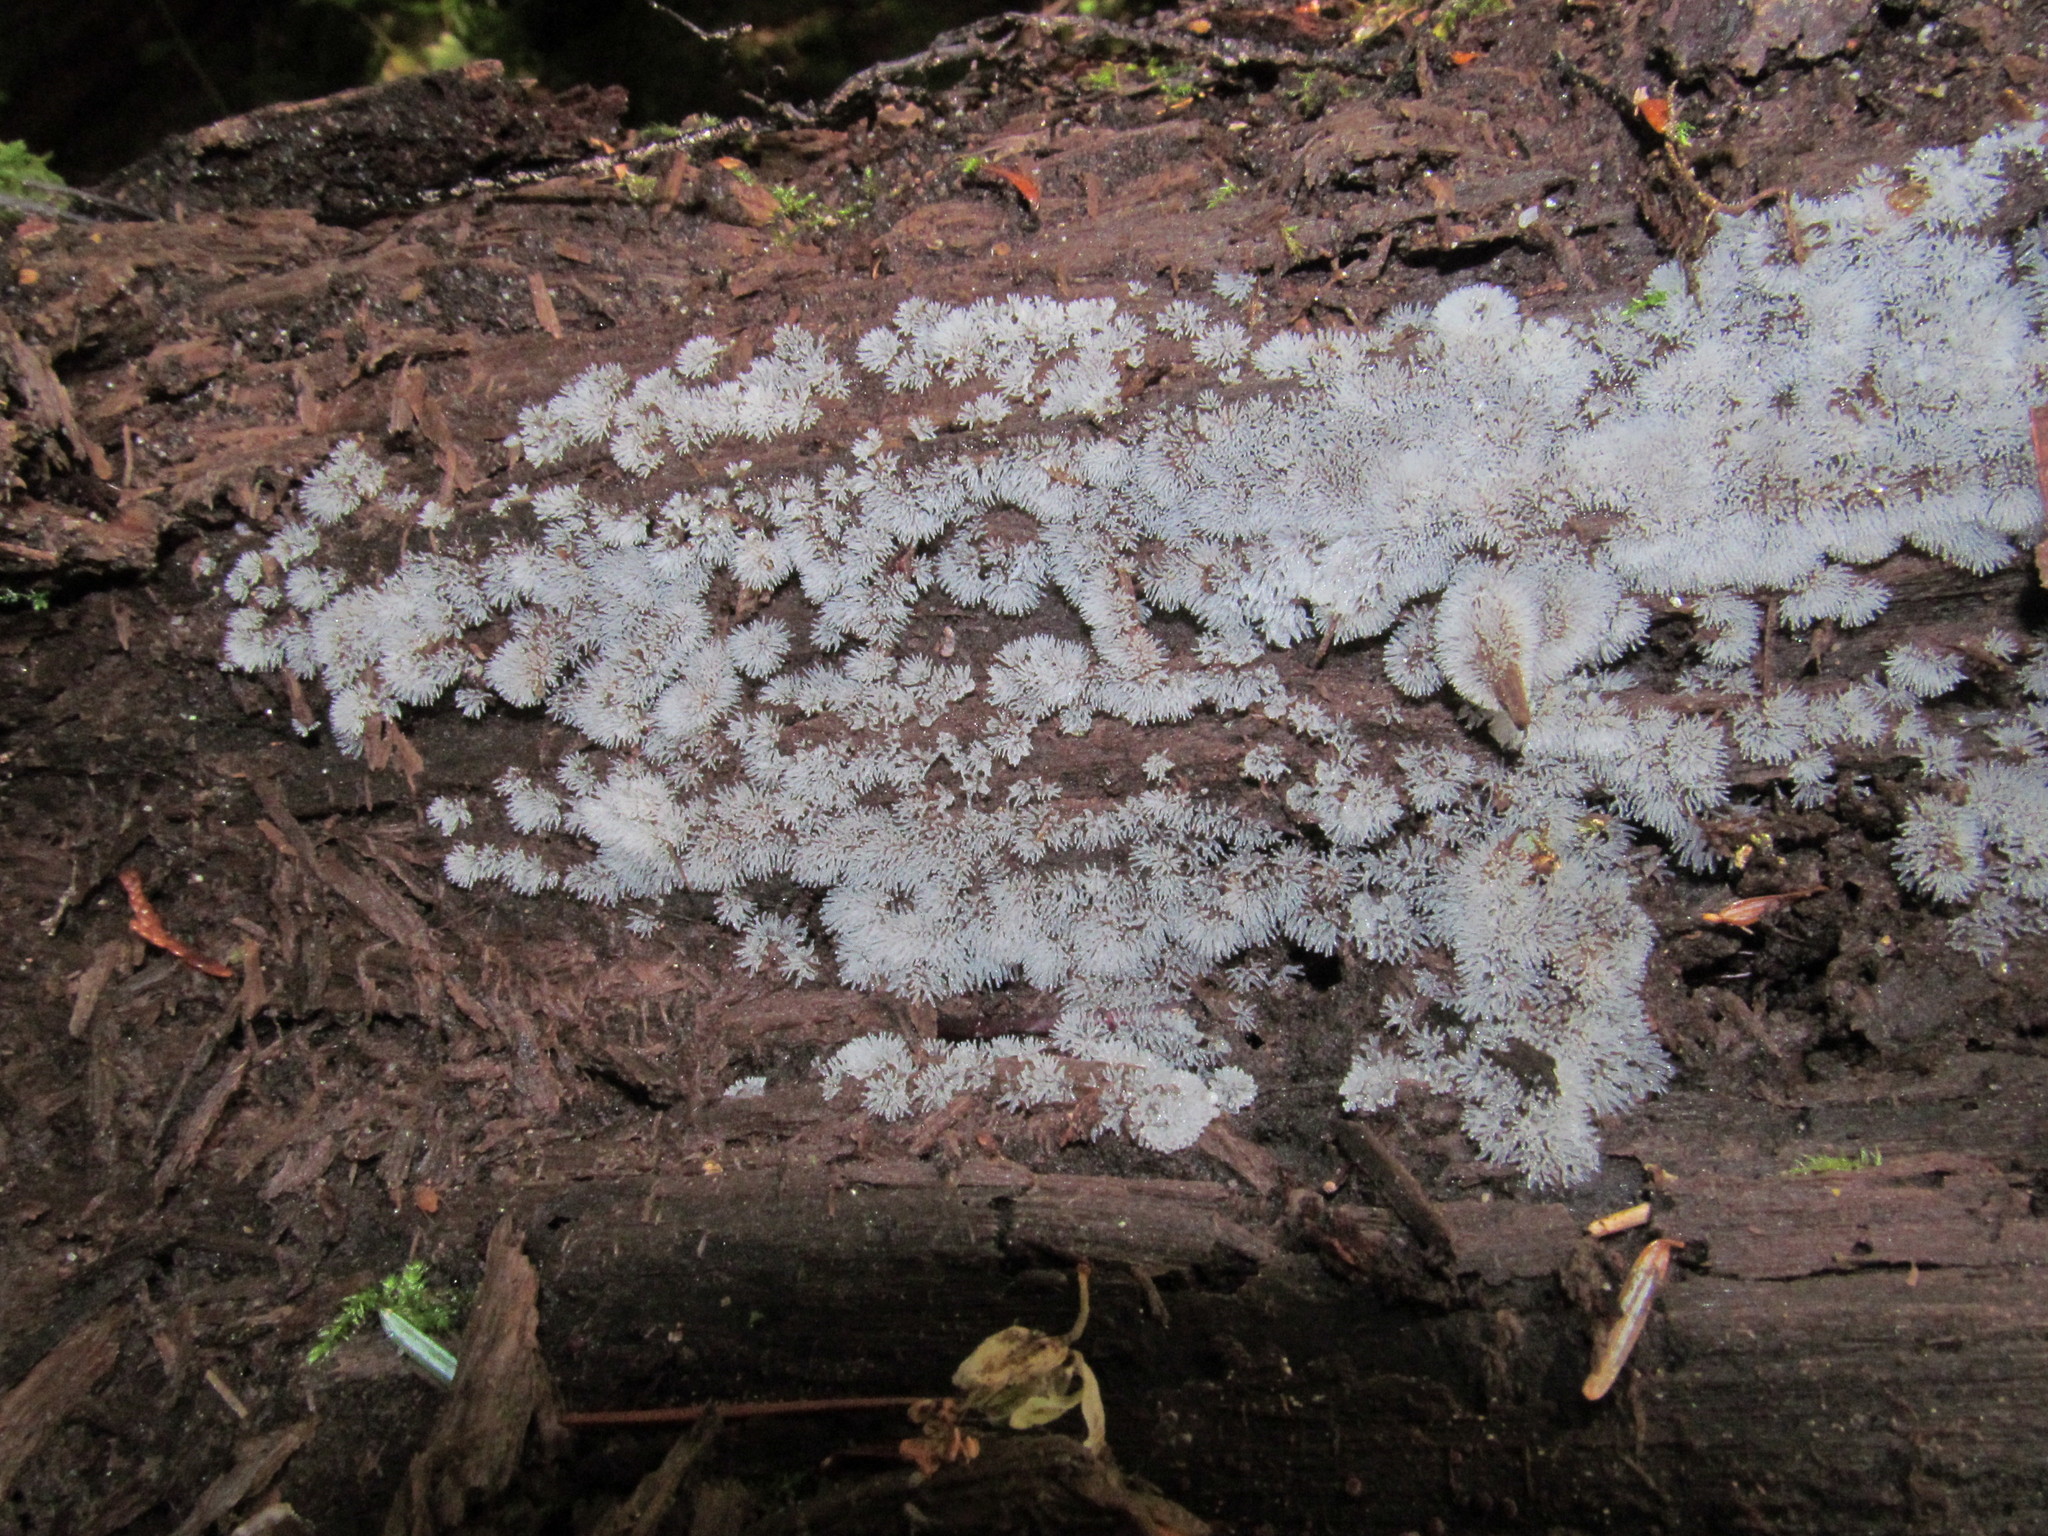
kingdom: Protozoa
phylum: Mycetozoa
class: Protosteliomycetes
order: Ceratiomyxales
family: Ceratiomyxaceae
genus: Ceratiomyxa
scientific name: Ceratiomyxa fruticulosa
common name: Honeycomb coral slime mold
